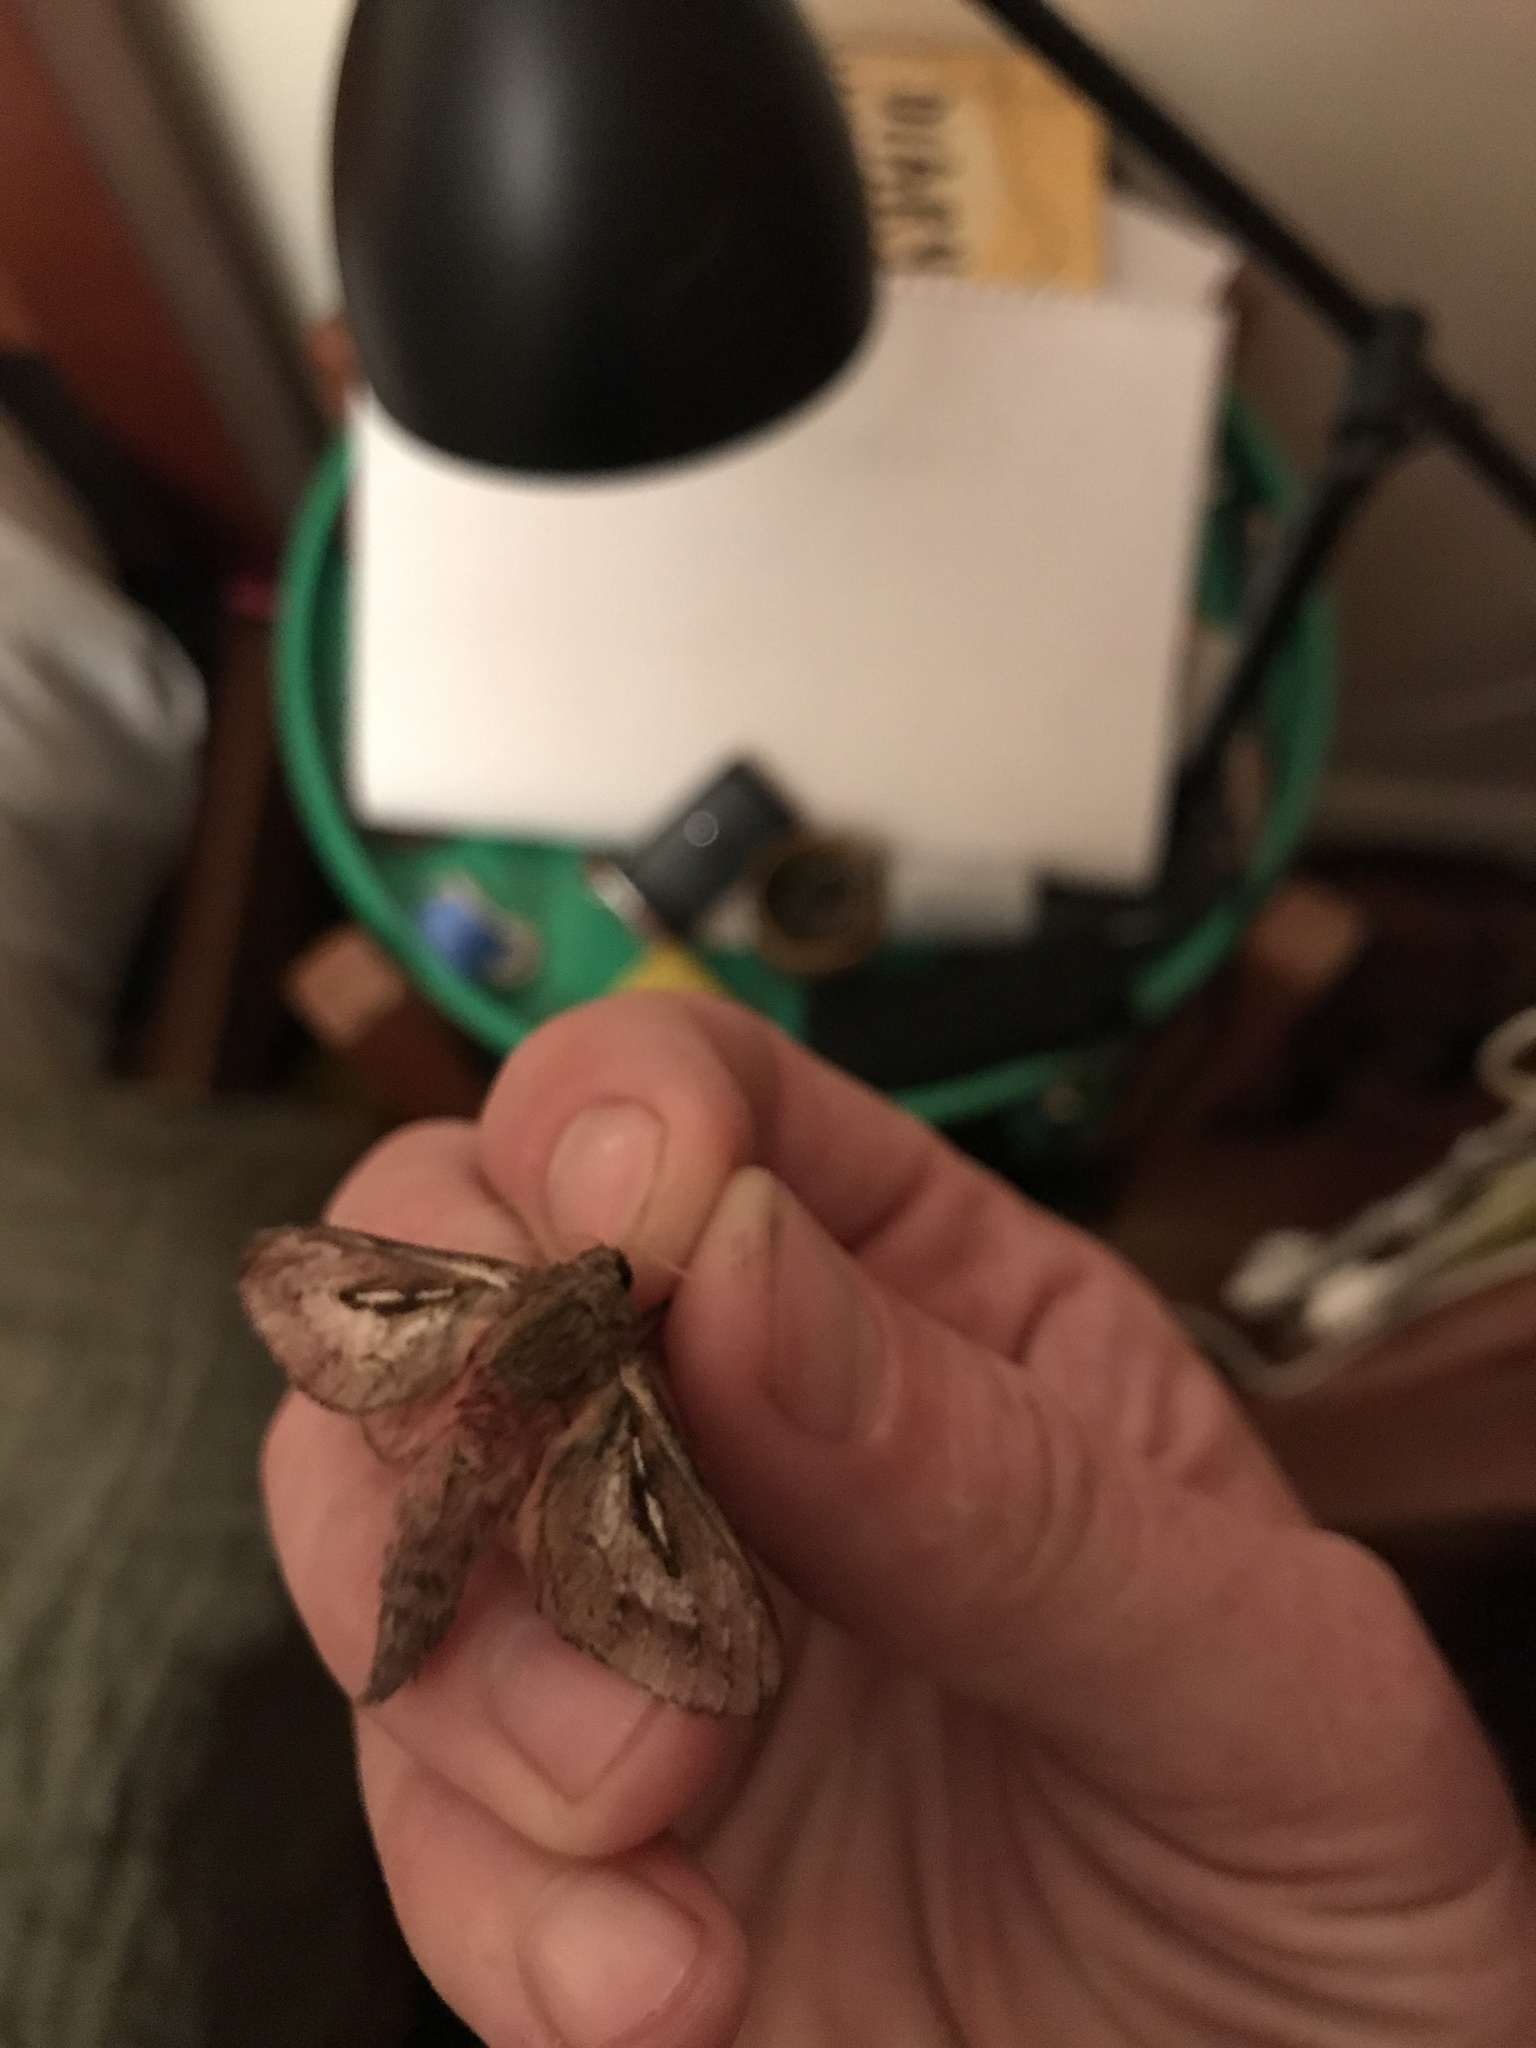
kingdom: Animalia
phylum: Arthropoda
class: Insecta
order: Lepidoptera
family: Hepialidae
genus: Wiseana
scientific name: Wiseana umbraculatus
